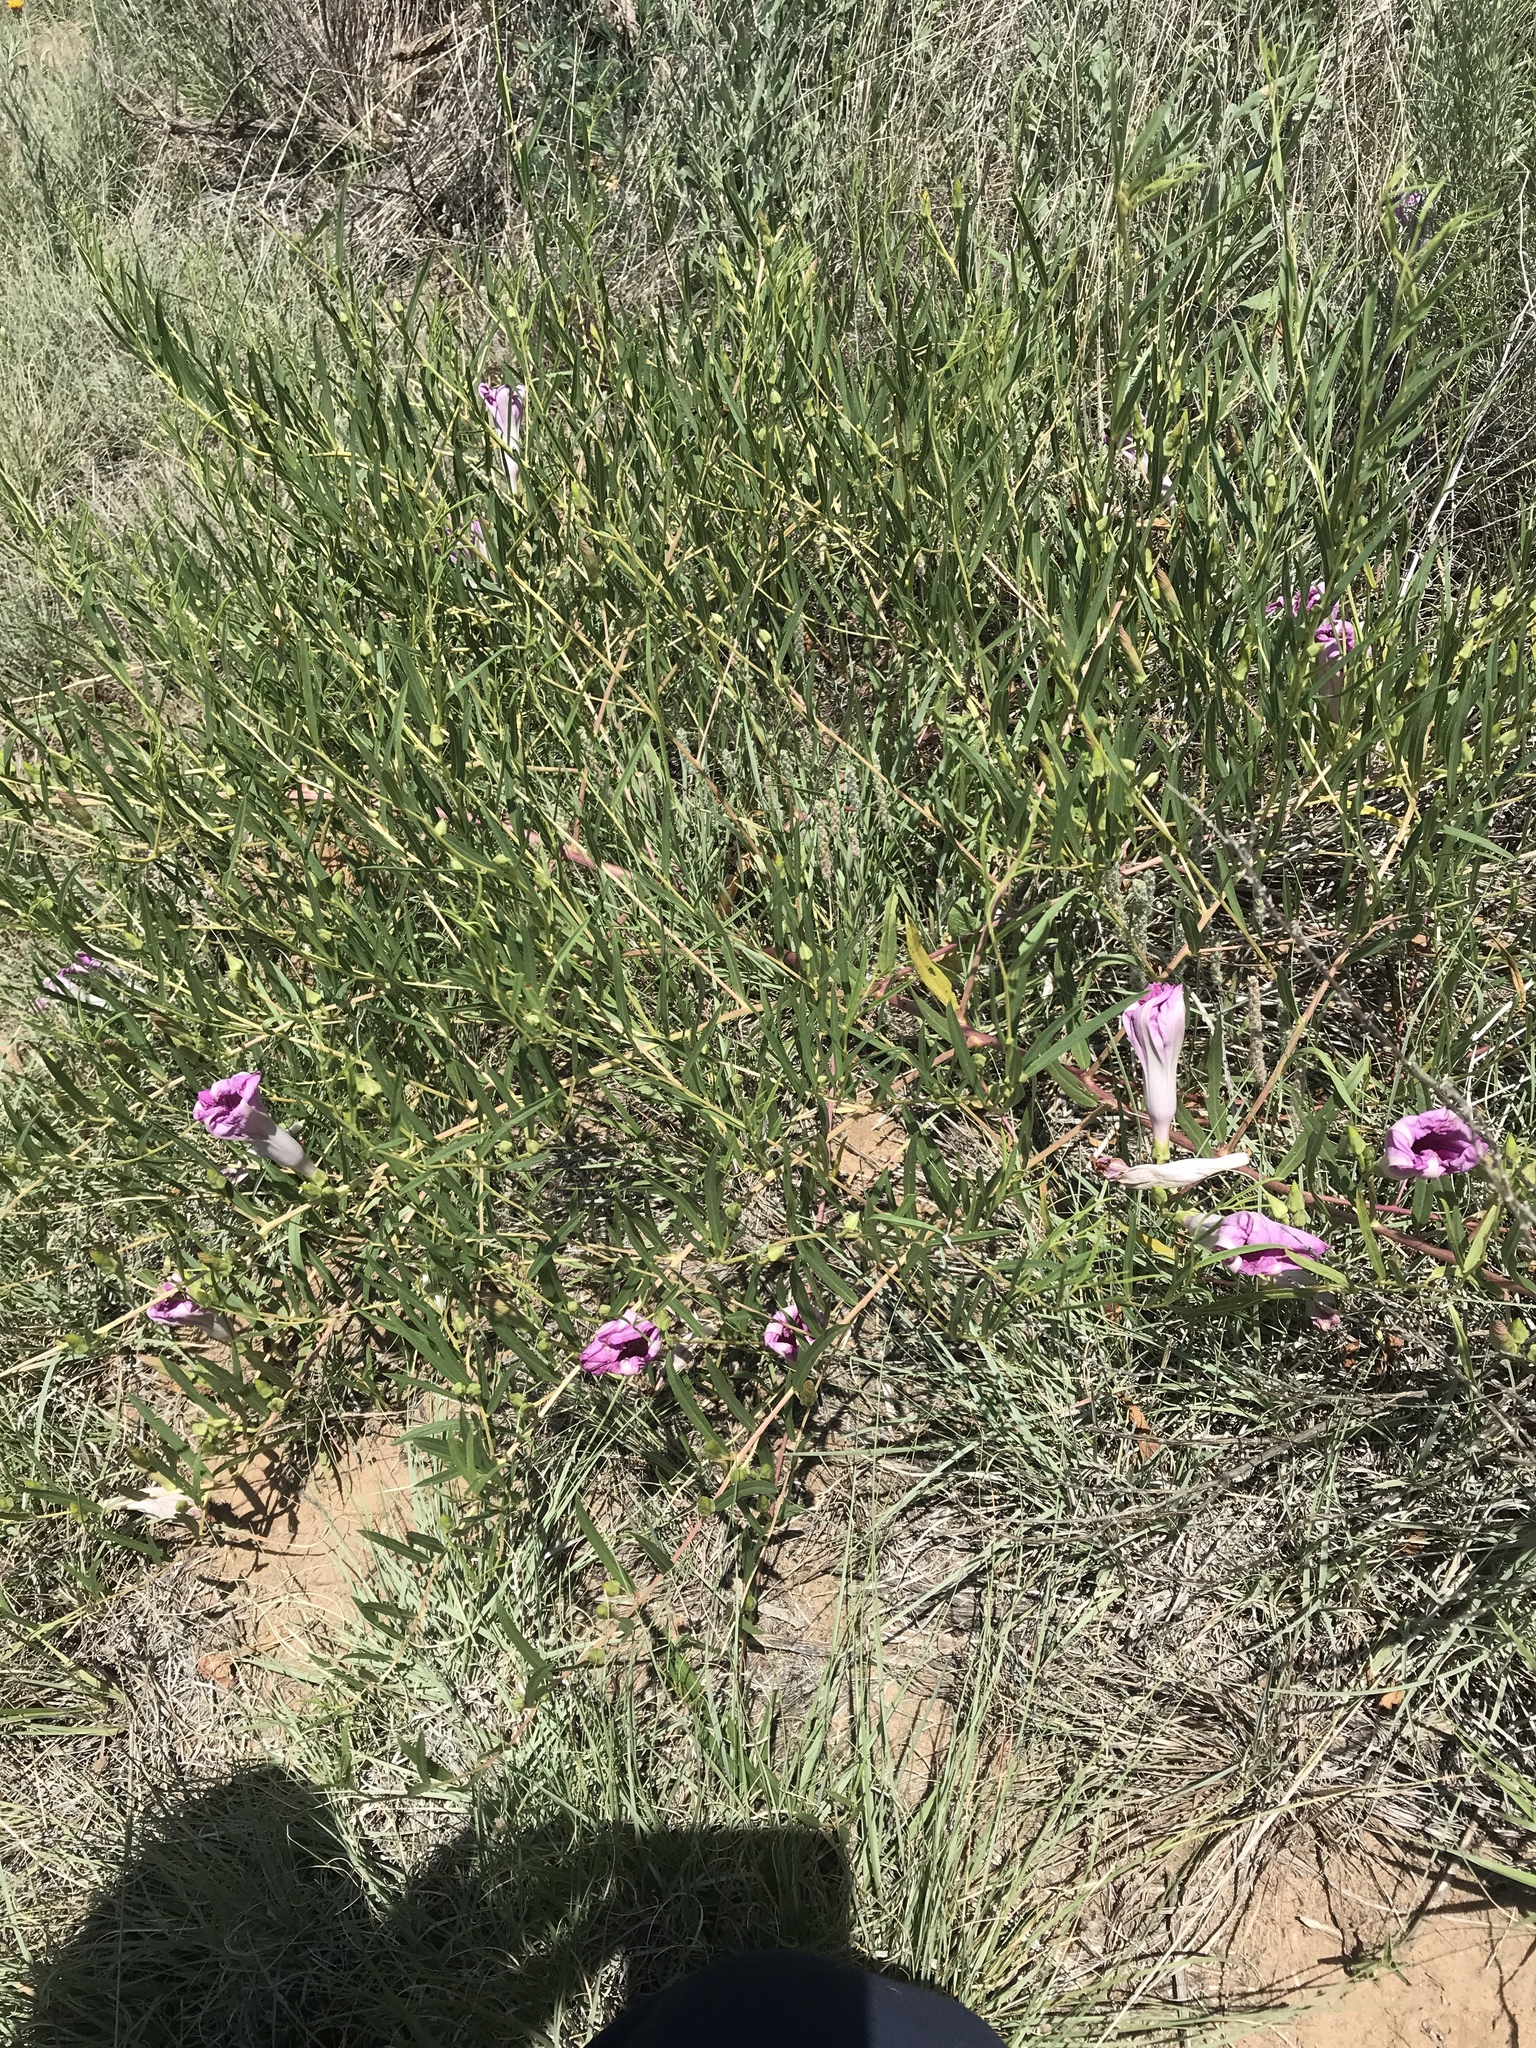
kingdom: Plantae
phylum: Tracheophyta
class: Magnoliopsida
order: Solanales
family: Convolvulaceae
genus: Ipomoea
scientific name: Ipomoea leptophylla
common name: Bush moonflower
